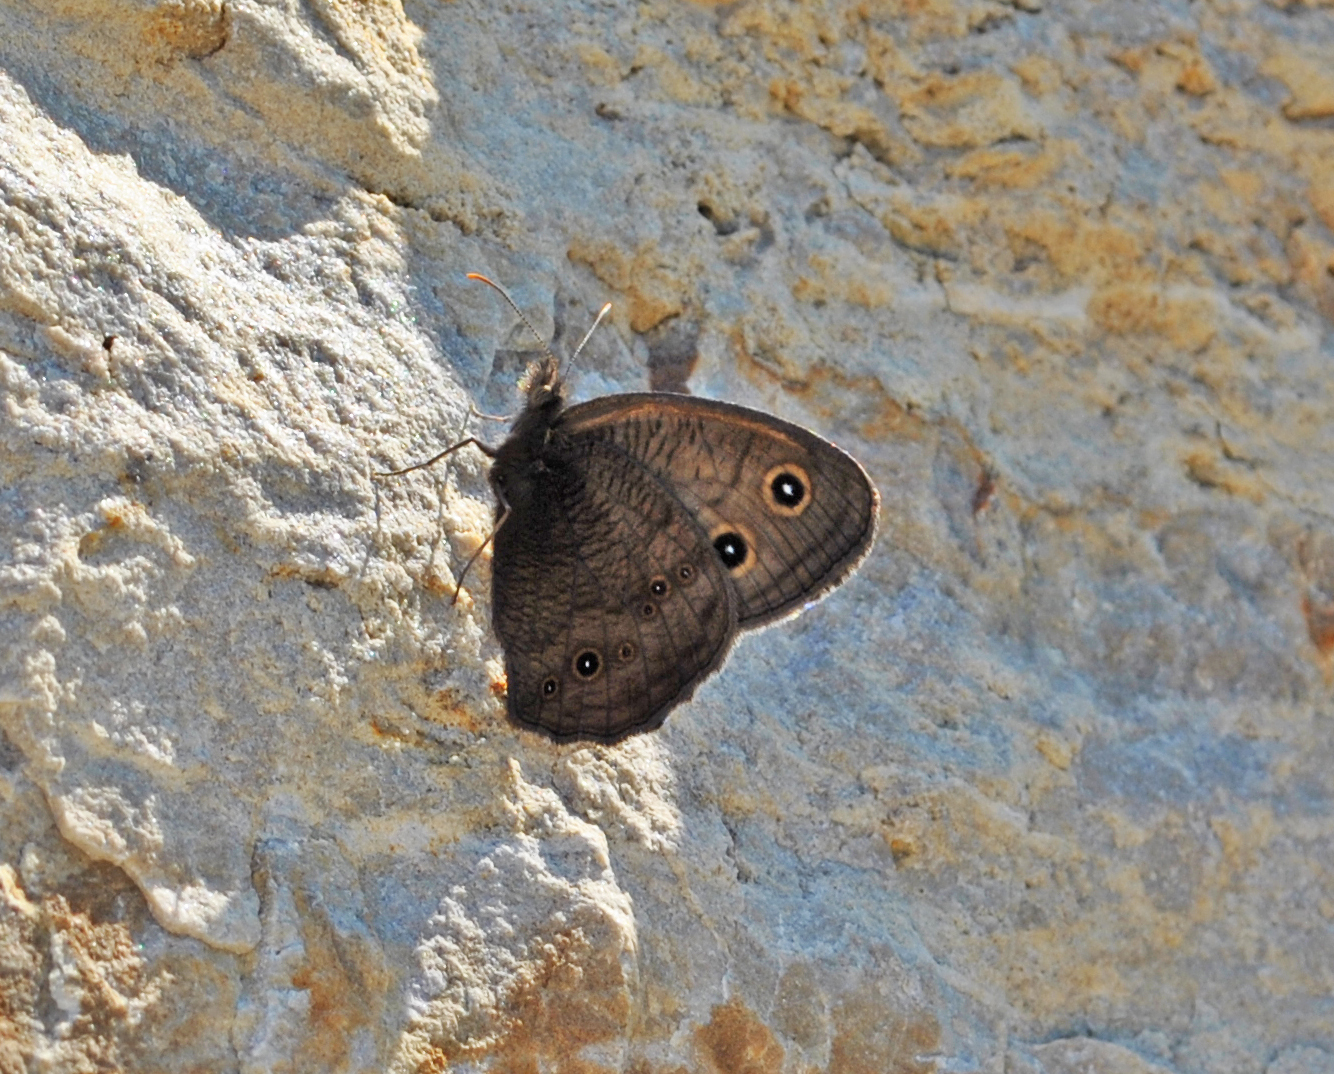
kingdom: Animalia
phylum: Arthropoda
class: Insecta
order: Lepidoptera
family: Nymphalidae
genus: Cercyonis
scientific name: Cercyonis pegala
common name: Common wood-nymph
